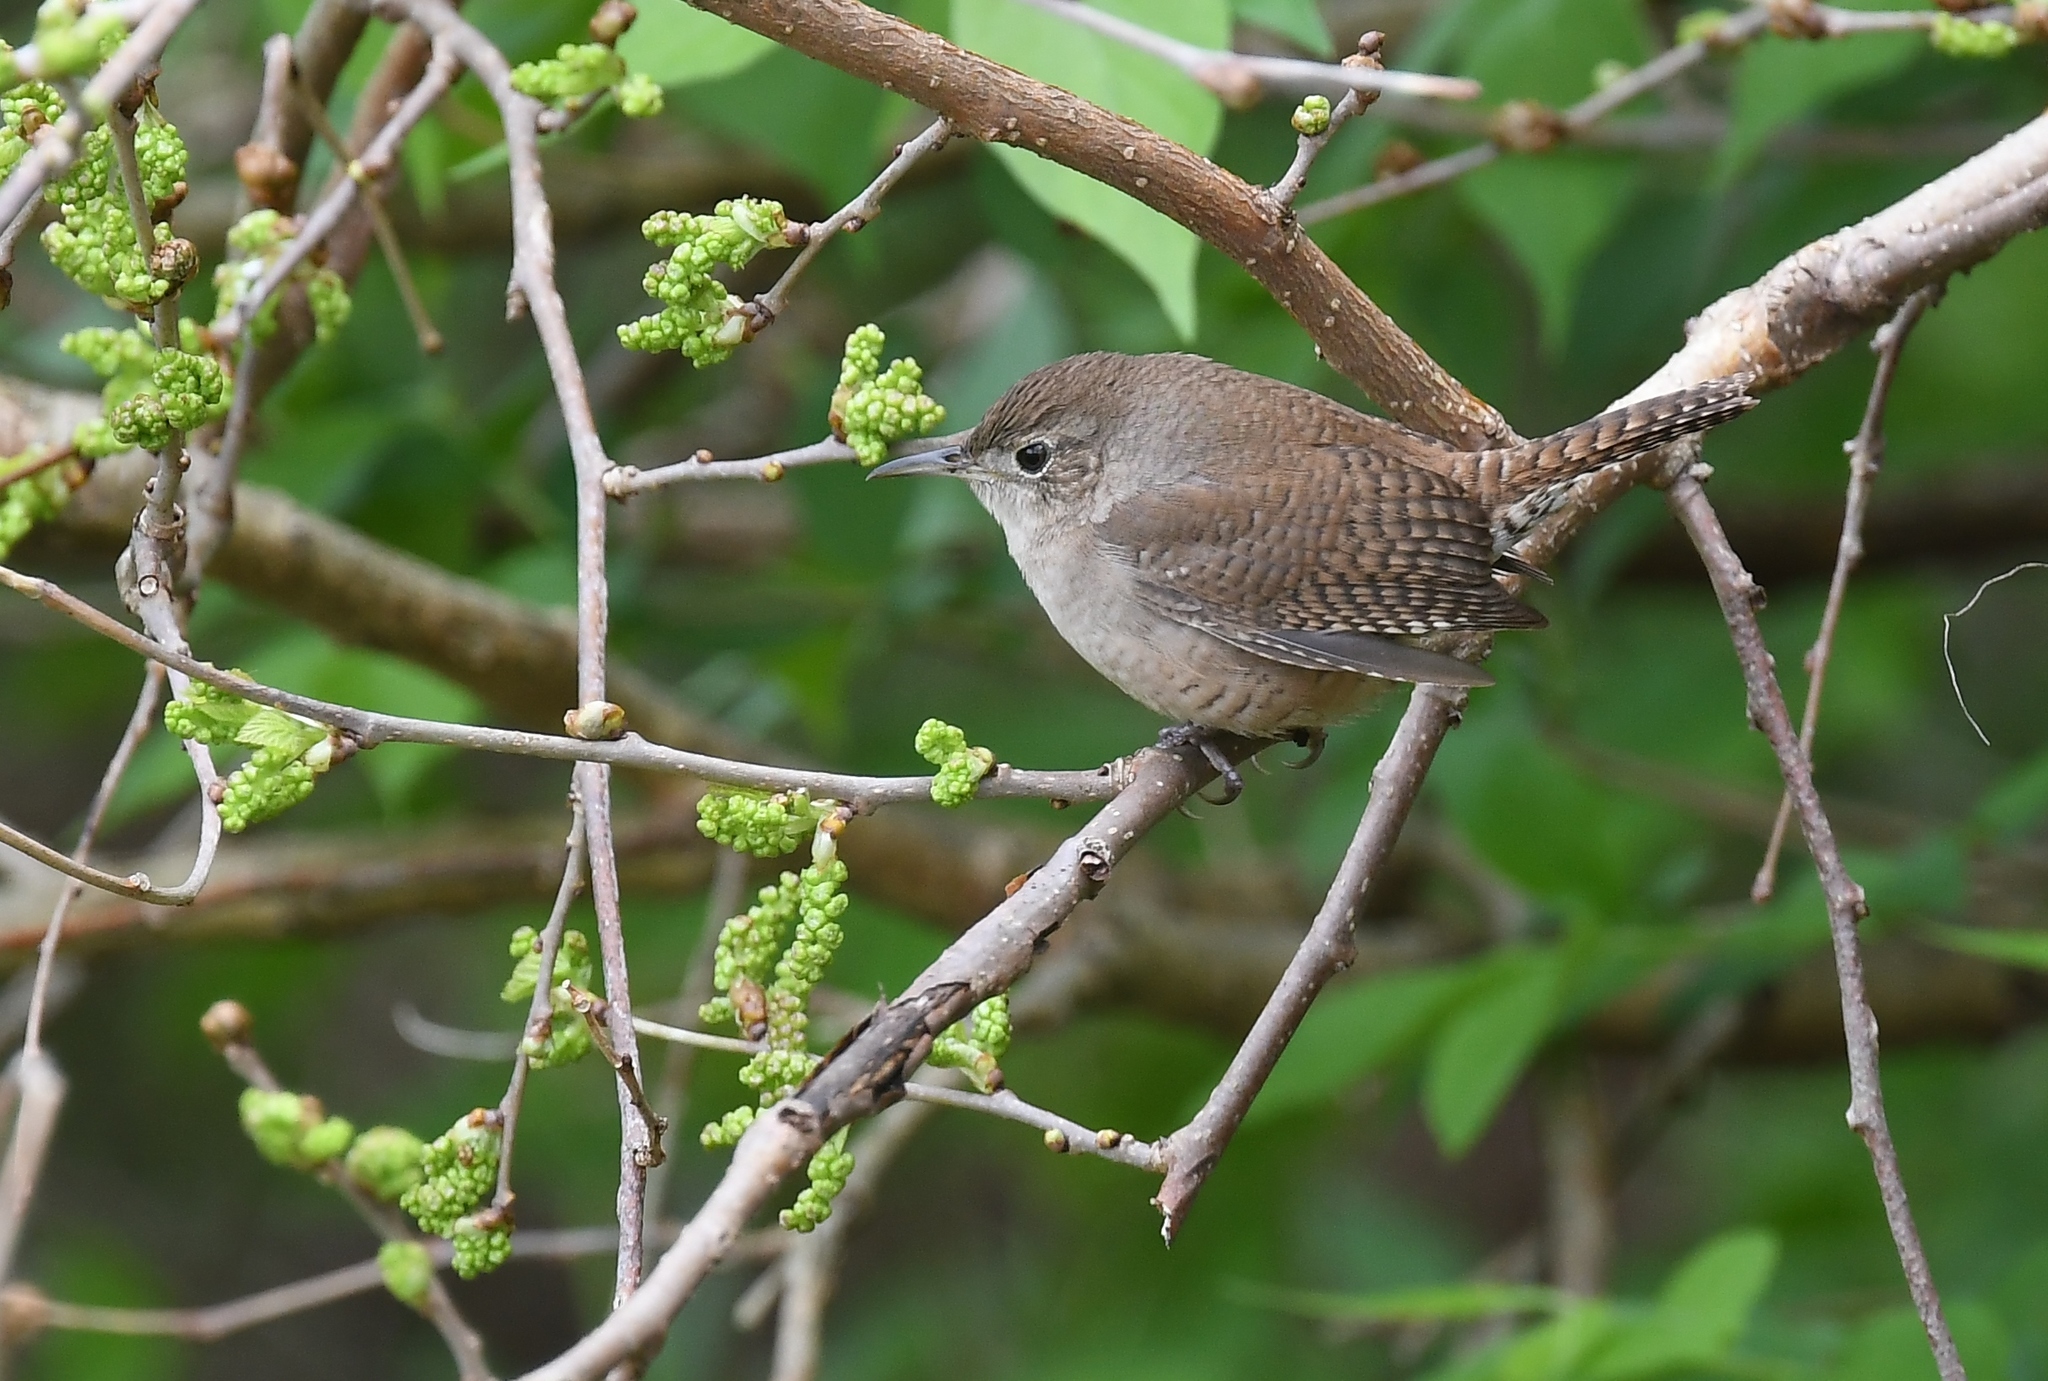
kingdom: Animalia
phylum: Chordata
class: Aves
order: Passeriformes
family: Troglodytidae
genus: Troglodytes
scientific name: Troglodytes aedon
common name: House wren
